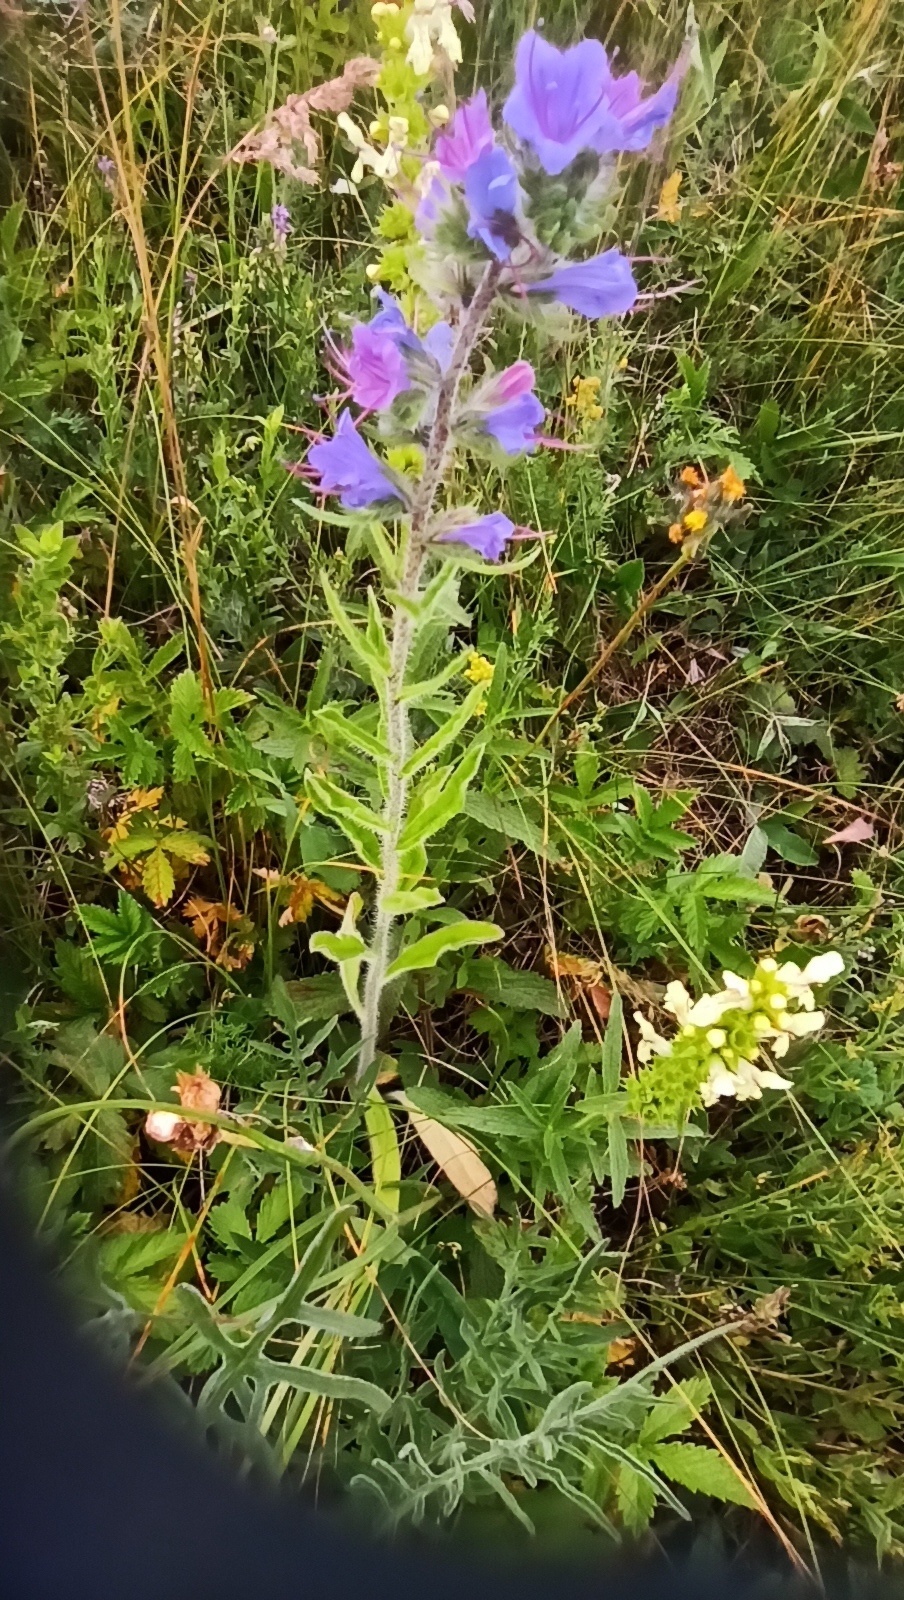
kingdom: Plantae
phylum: Tracheophyta
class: Magnoliopsida
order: Boraginales
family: Boraginaceae
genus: Echium
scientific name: Echium vulgare
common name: Common viper's bugloss
